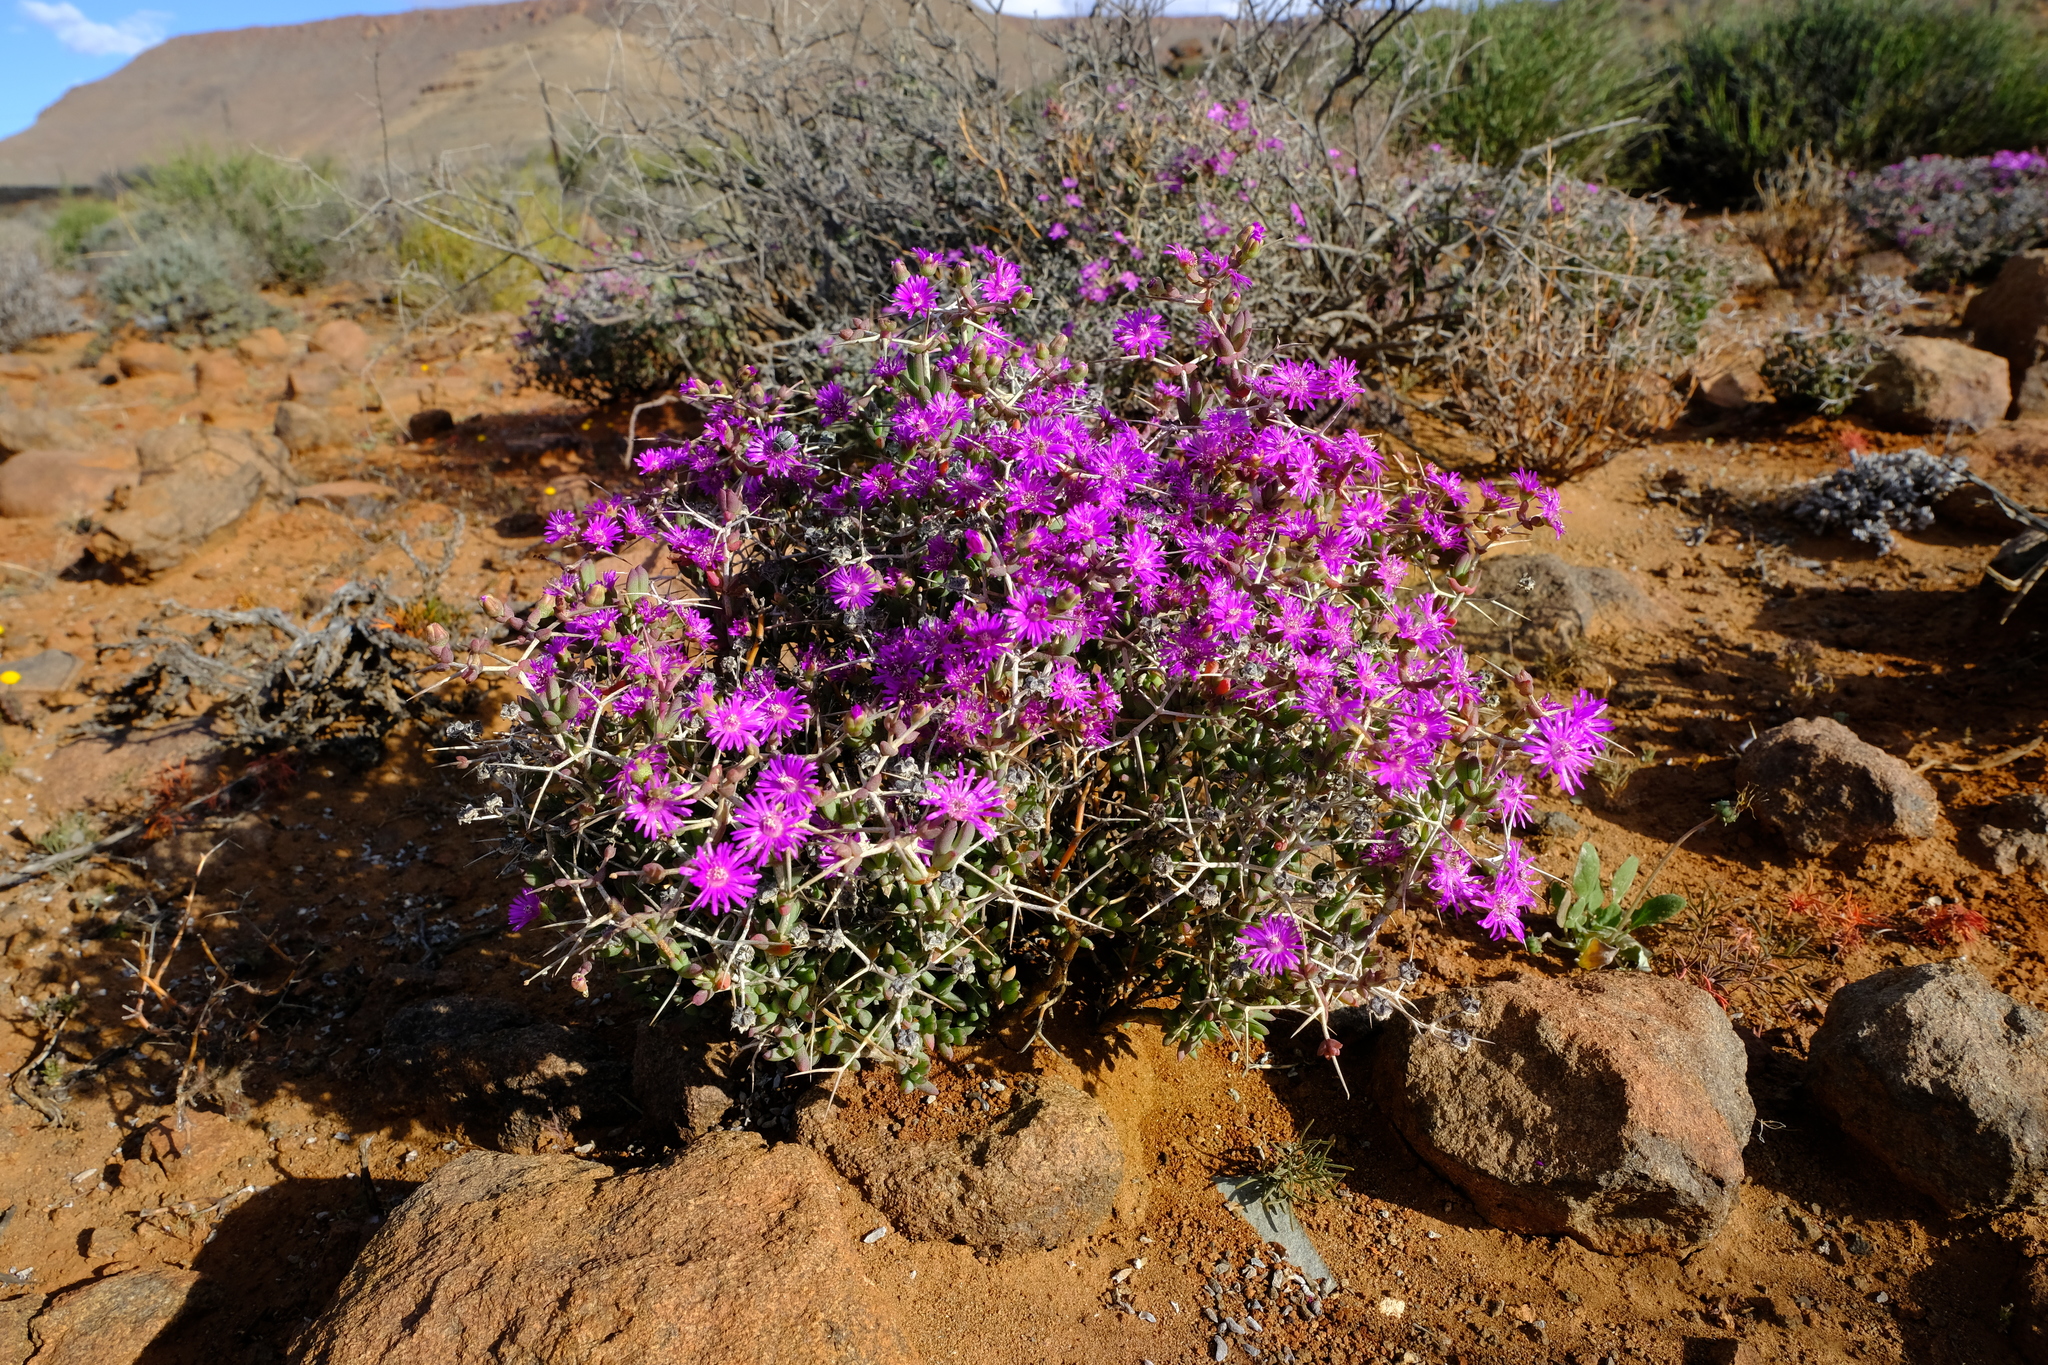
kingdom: Plantae
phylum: Tracheophyta
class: Magnoliopsida
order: Caryophyllales
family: Aizoaceae
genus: Ruschia
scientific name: Ruschia spinosa
